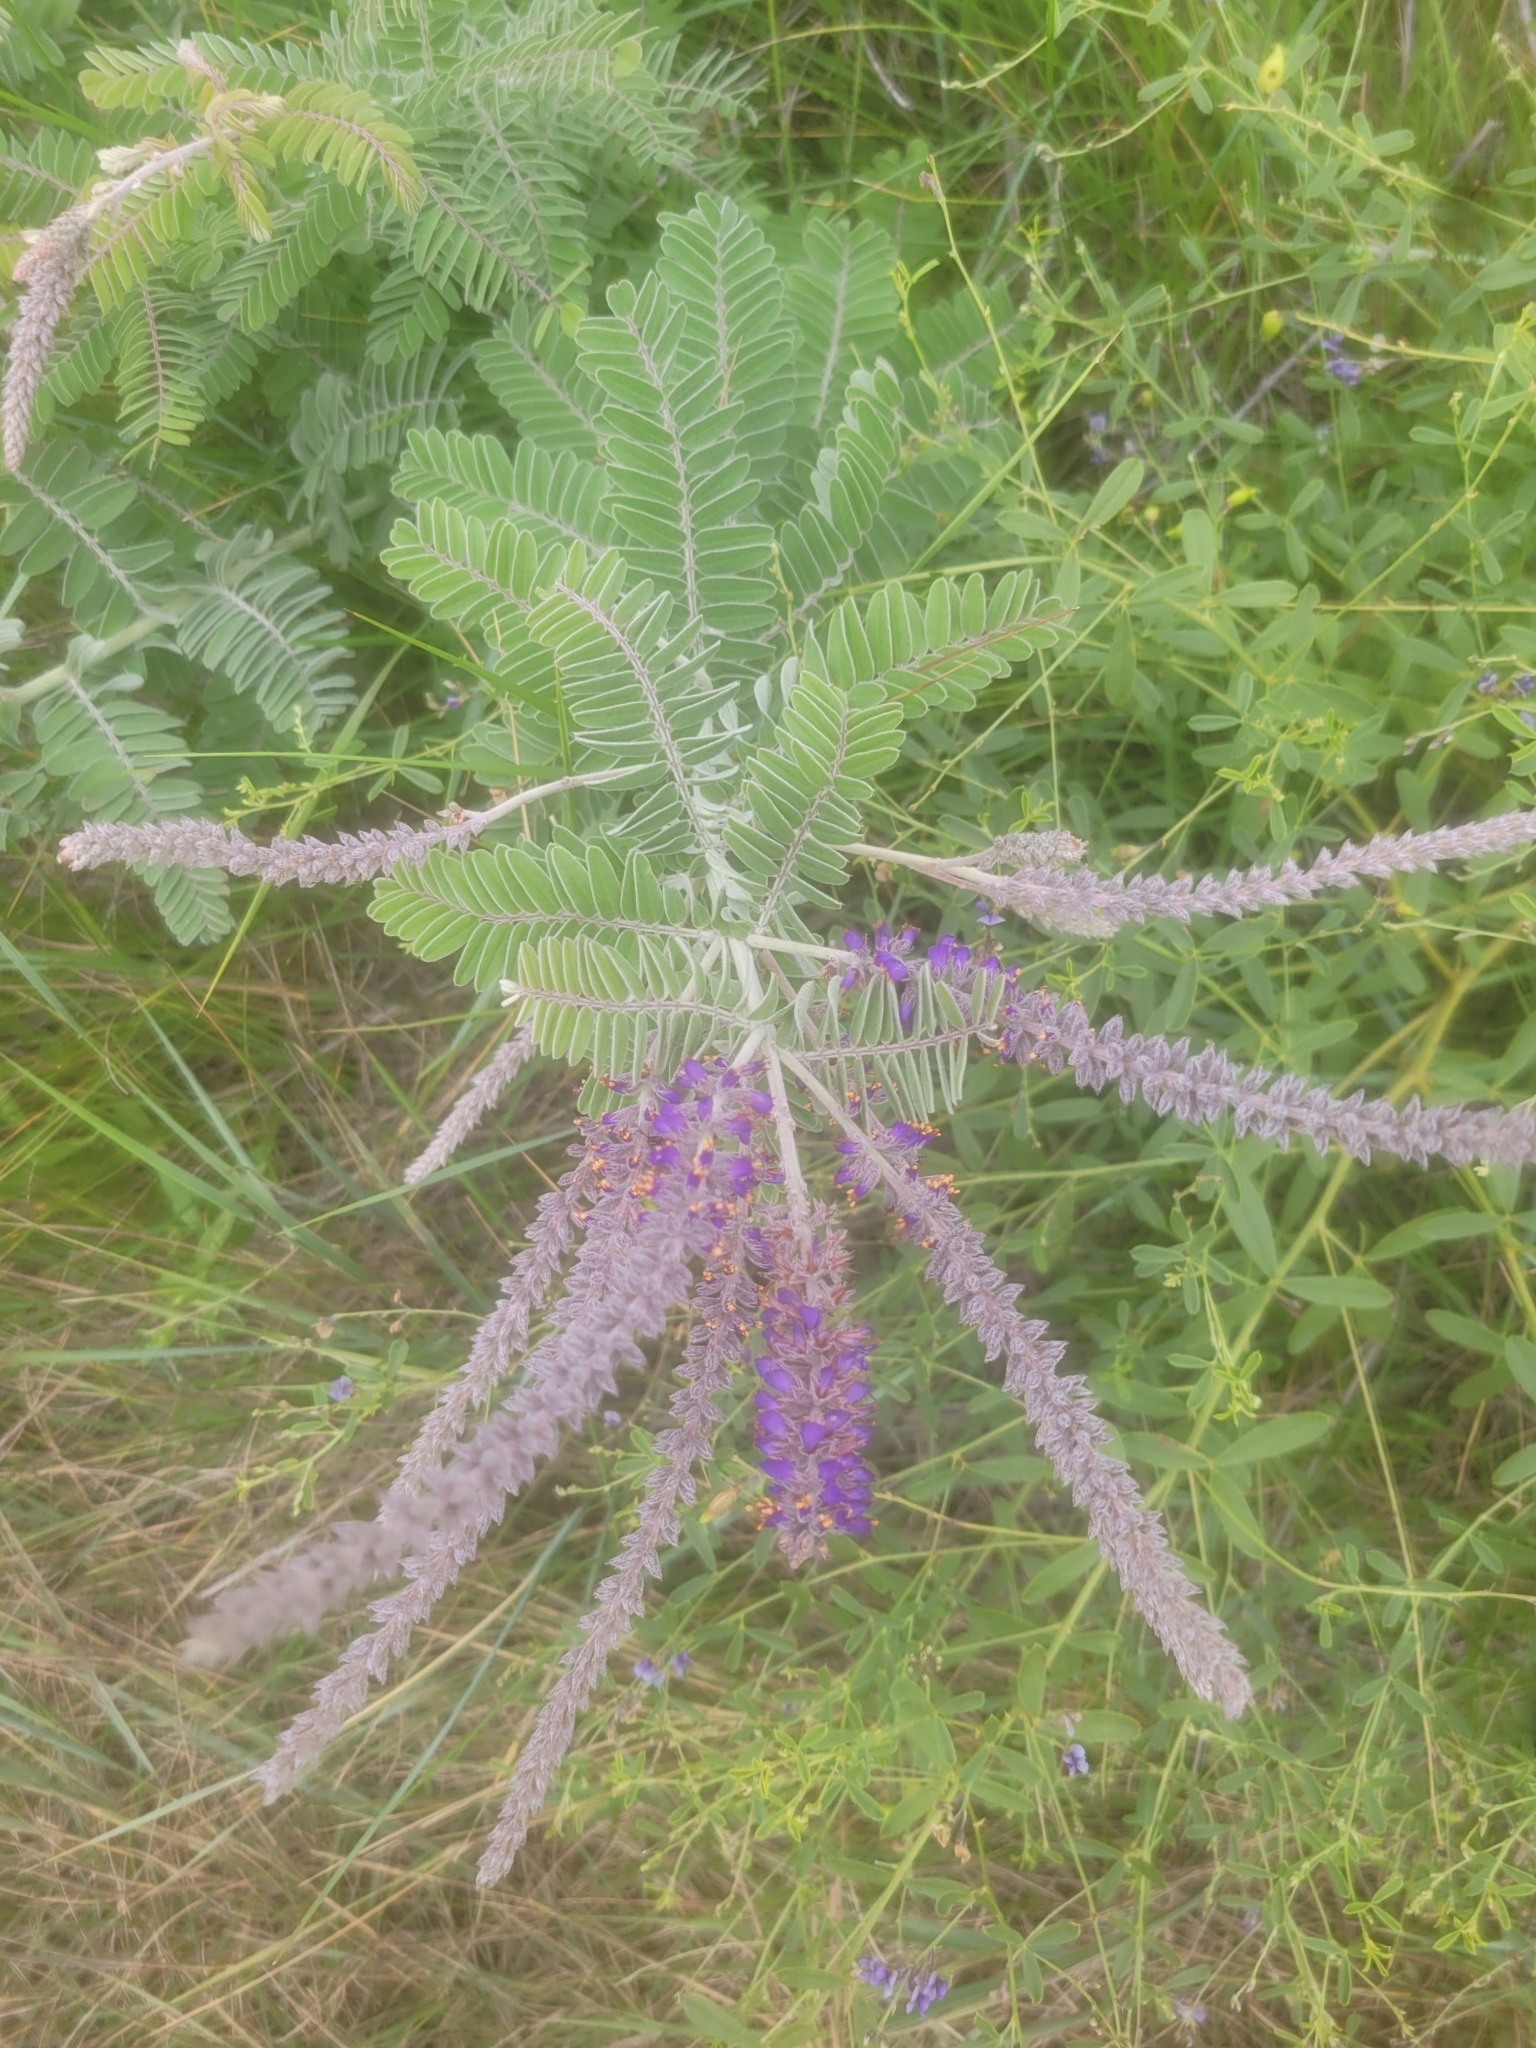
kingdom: Plantae
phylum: Tracheophyta
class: Magnoliopsida
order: Fabales
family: Fabaceae
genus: Amorpha
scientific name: Amorpha canescens
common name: Leadplant
